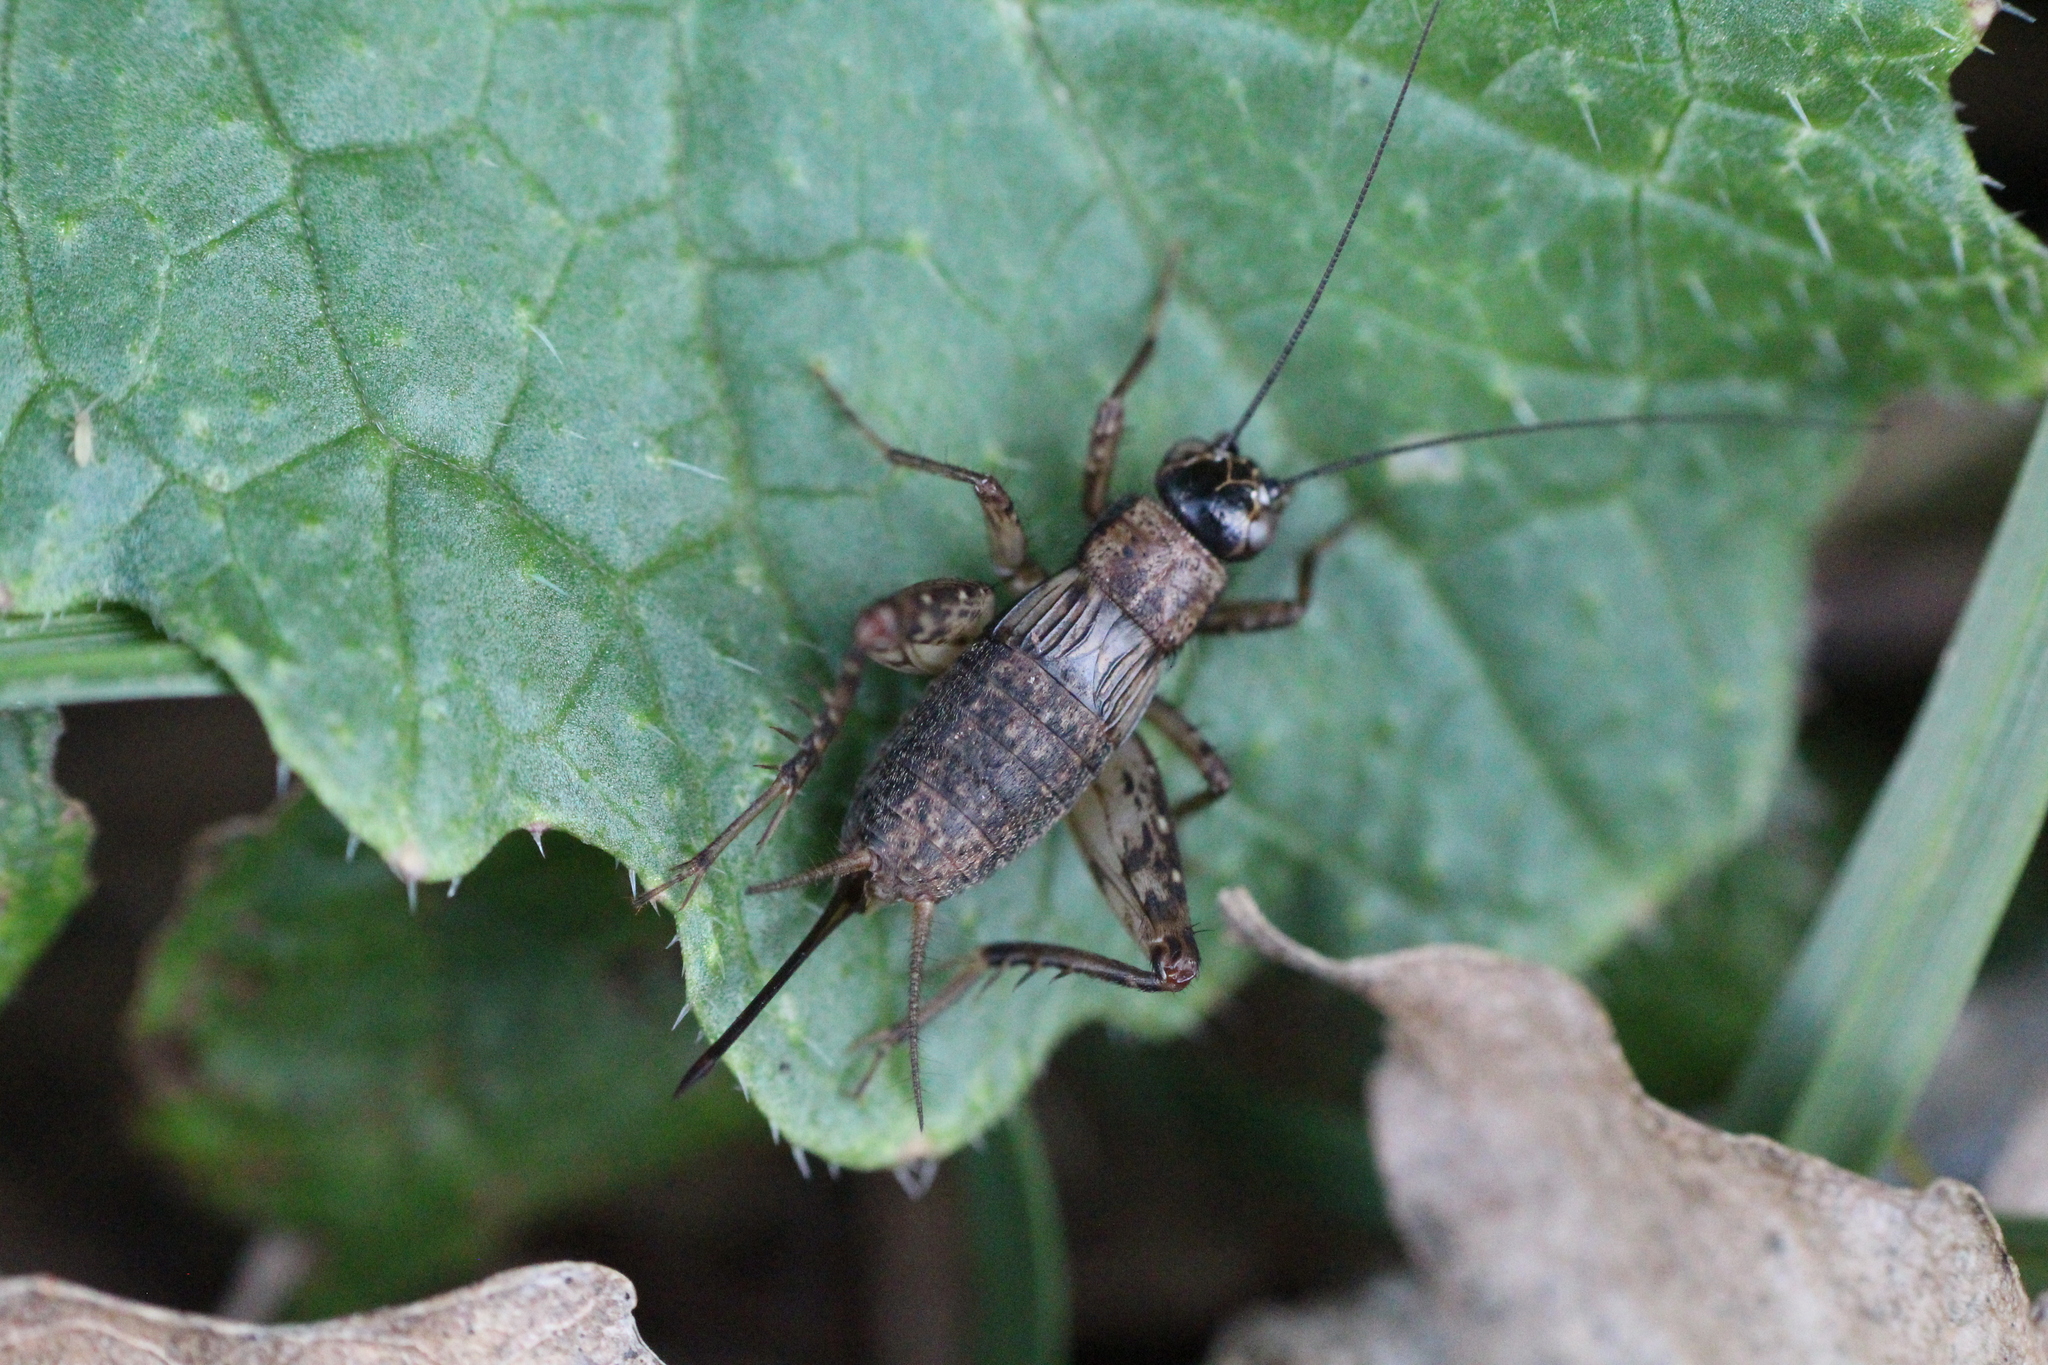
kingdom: Animalia
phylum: Arthropoda
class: Insecta
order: Orthoptera
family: Trigonidiidae
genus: Nemobius
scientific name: Nemobius sylvestris
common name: Wood-cricket
